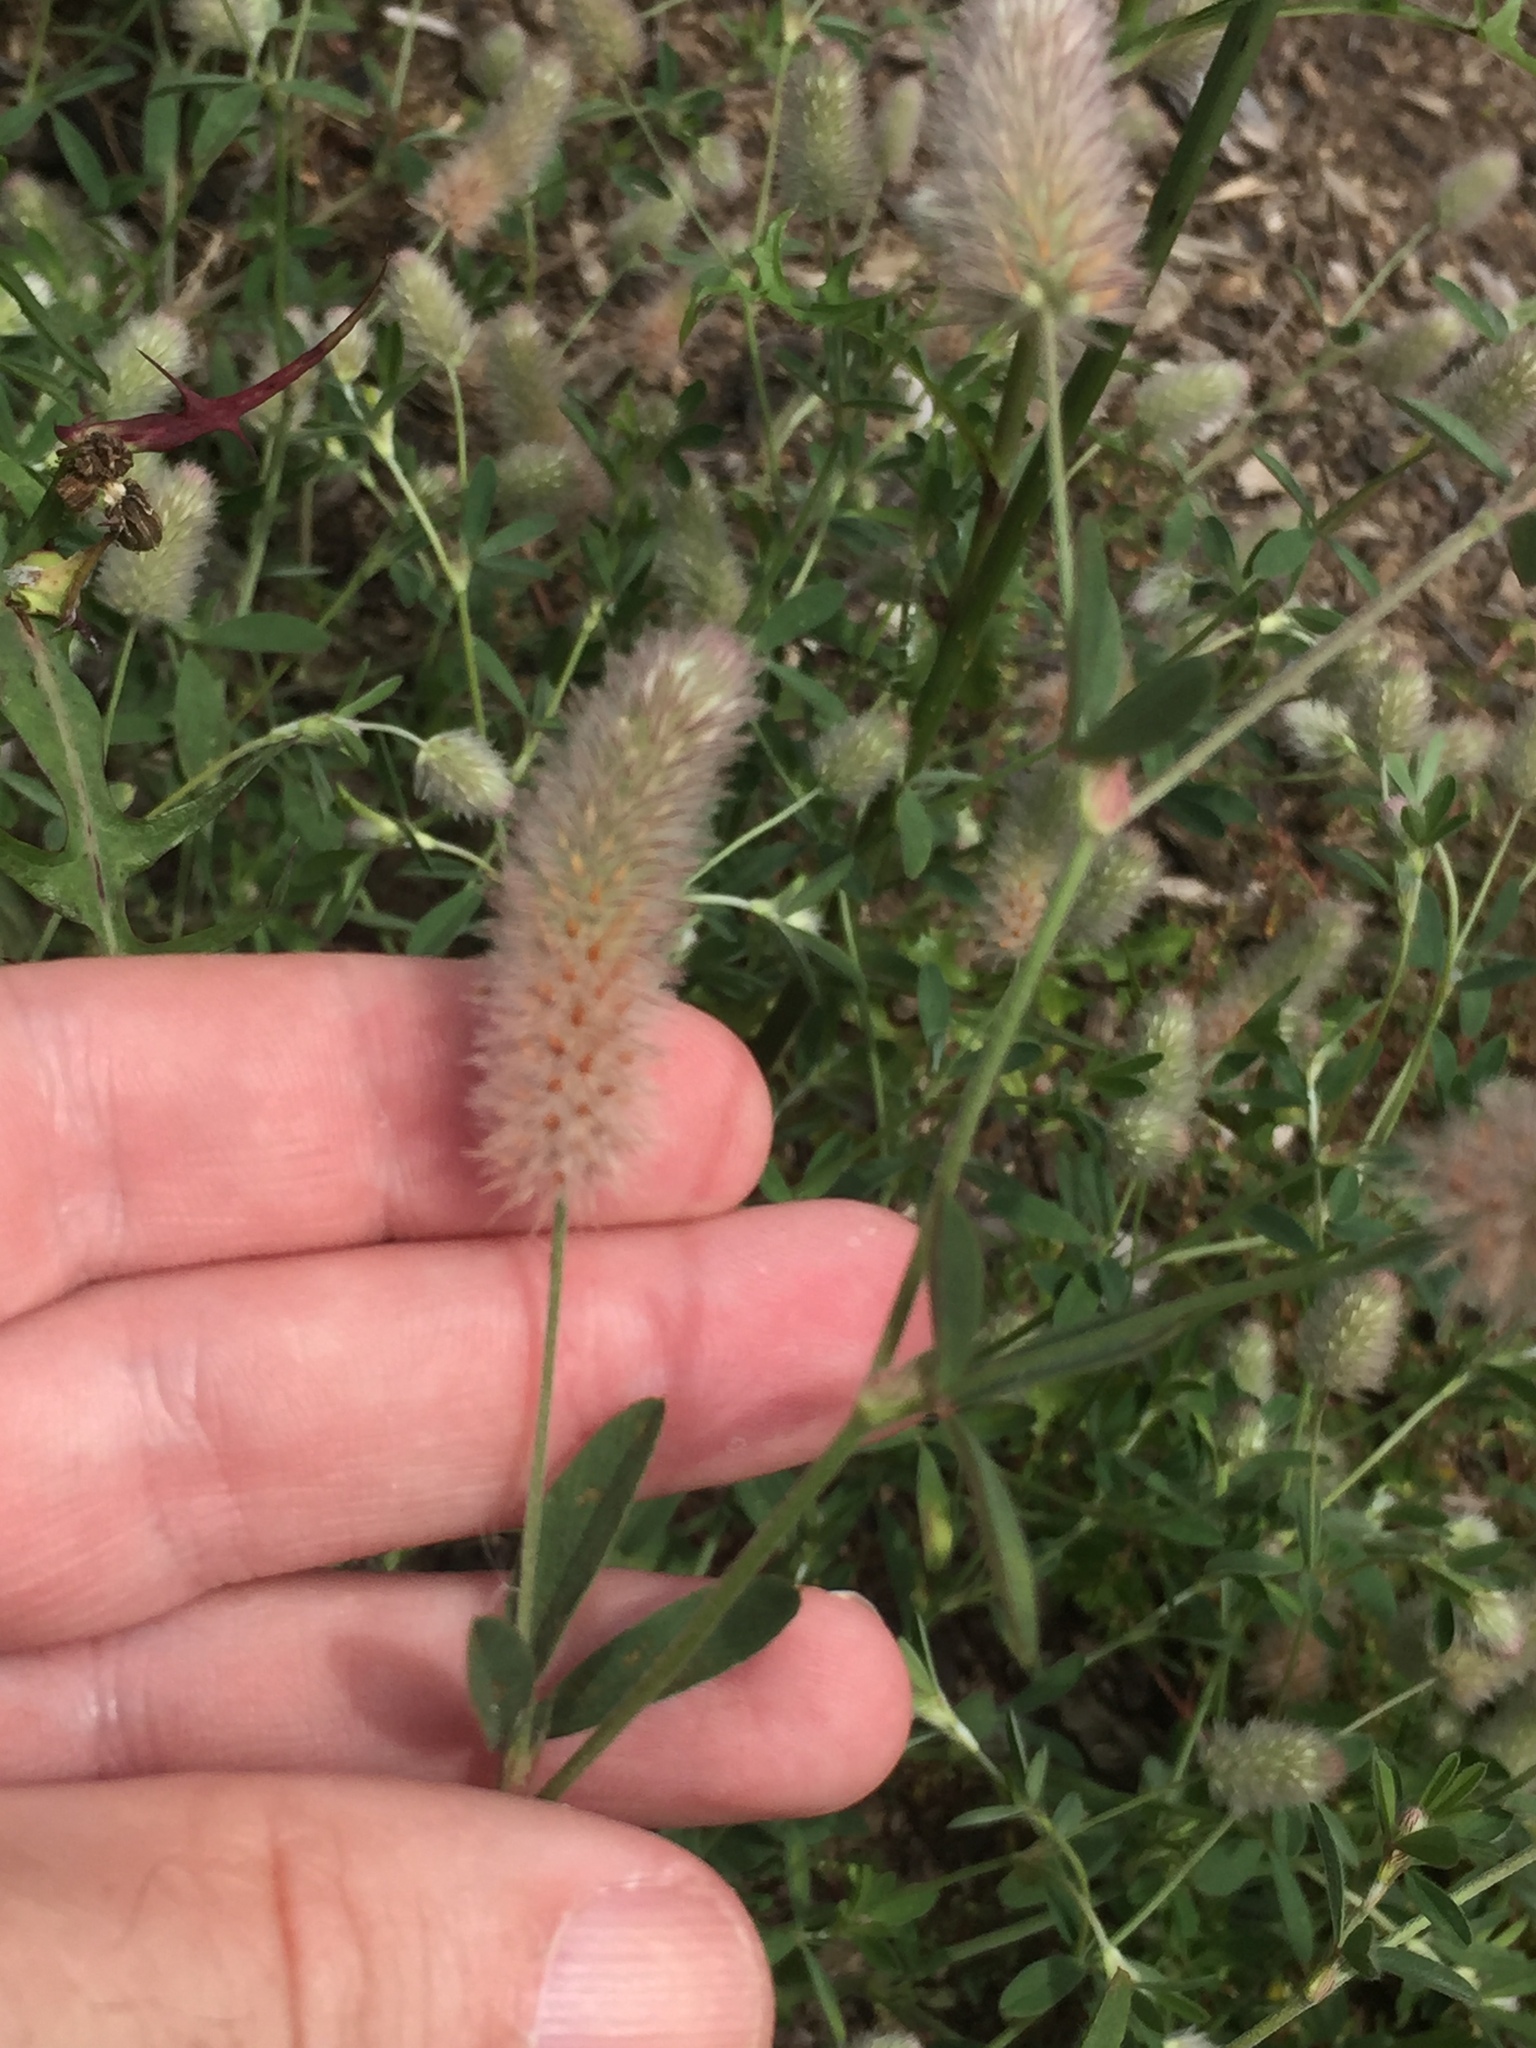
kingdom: Plantae
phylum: Tracheophyta
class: Magnoliopsida
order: Fabales
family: Fabaceae
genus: Trifolium
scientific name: Trifolium arvense
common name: Hare's-foot clover
